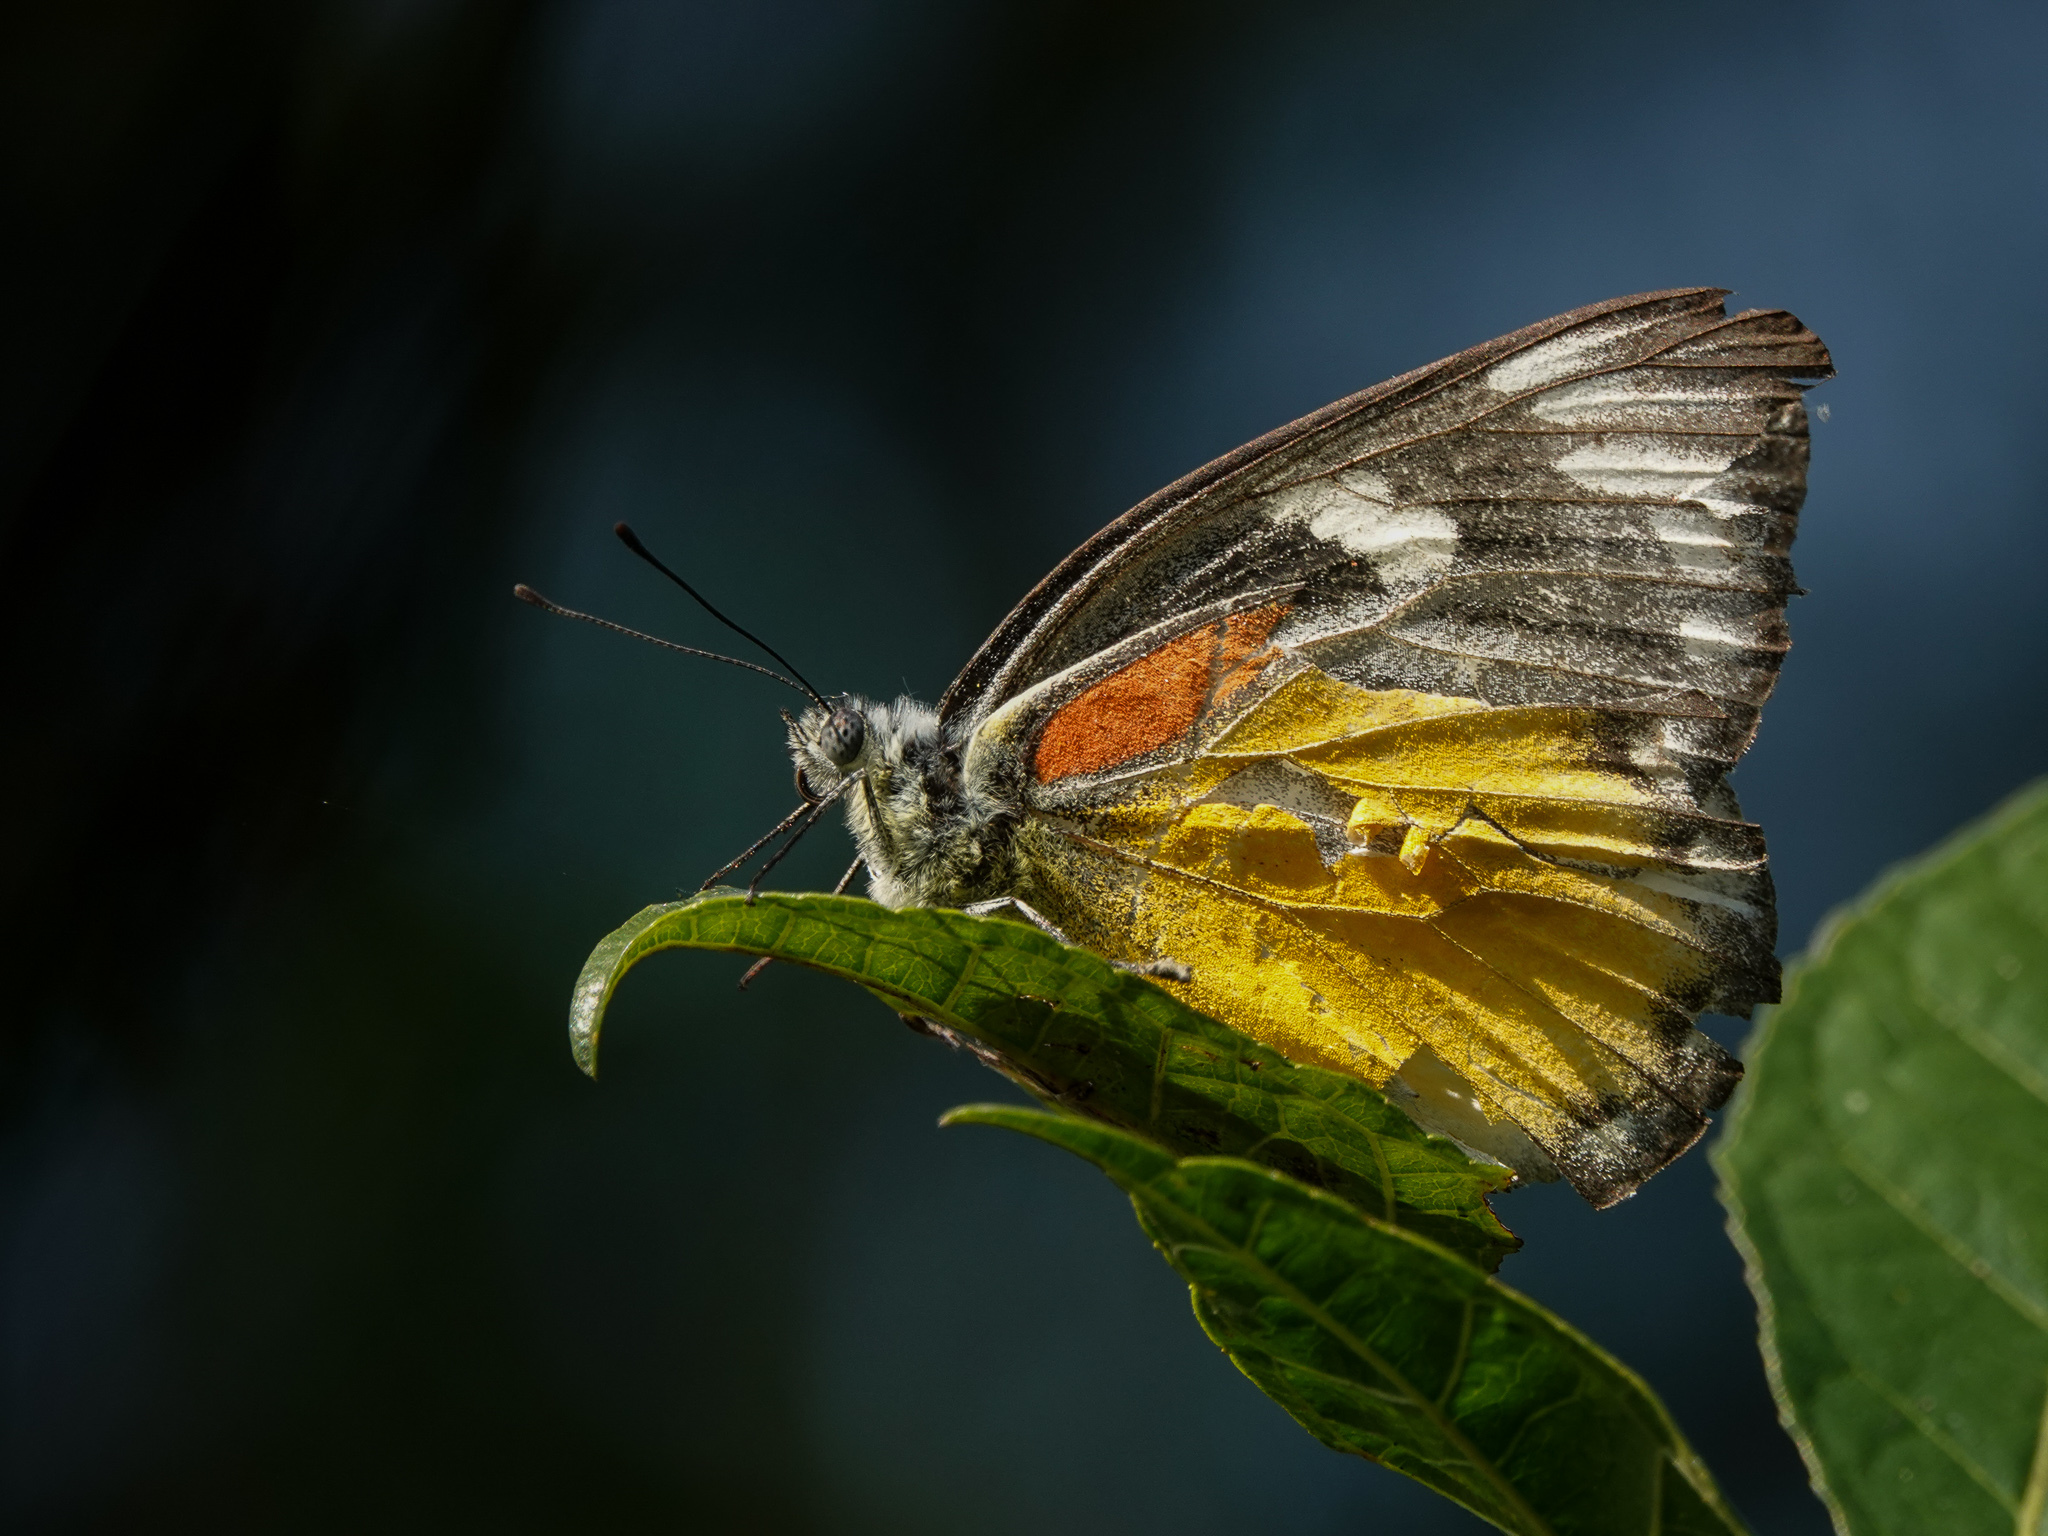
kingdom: Animalia
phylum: Arthropoda
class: Insecta
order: Lepidoptera
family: Pieridae
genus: Delias
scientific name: Delias descombesi
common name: Red-spot jezebel
